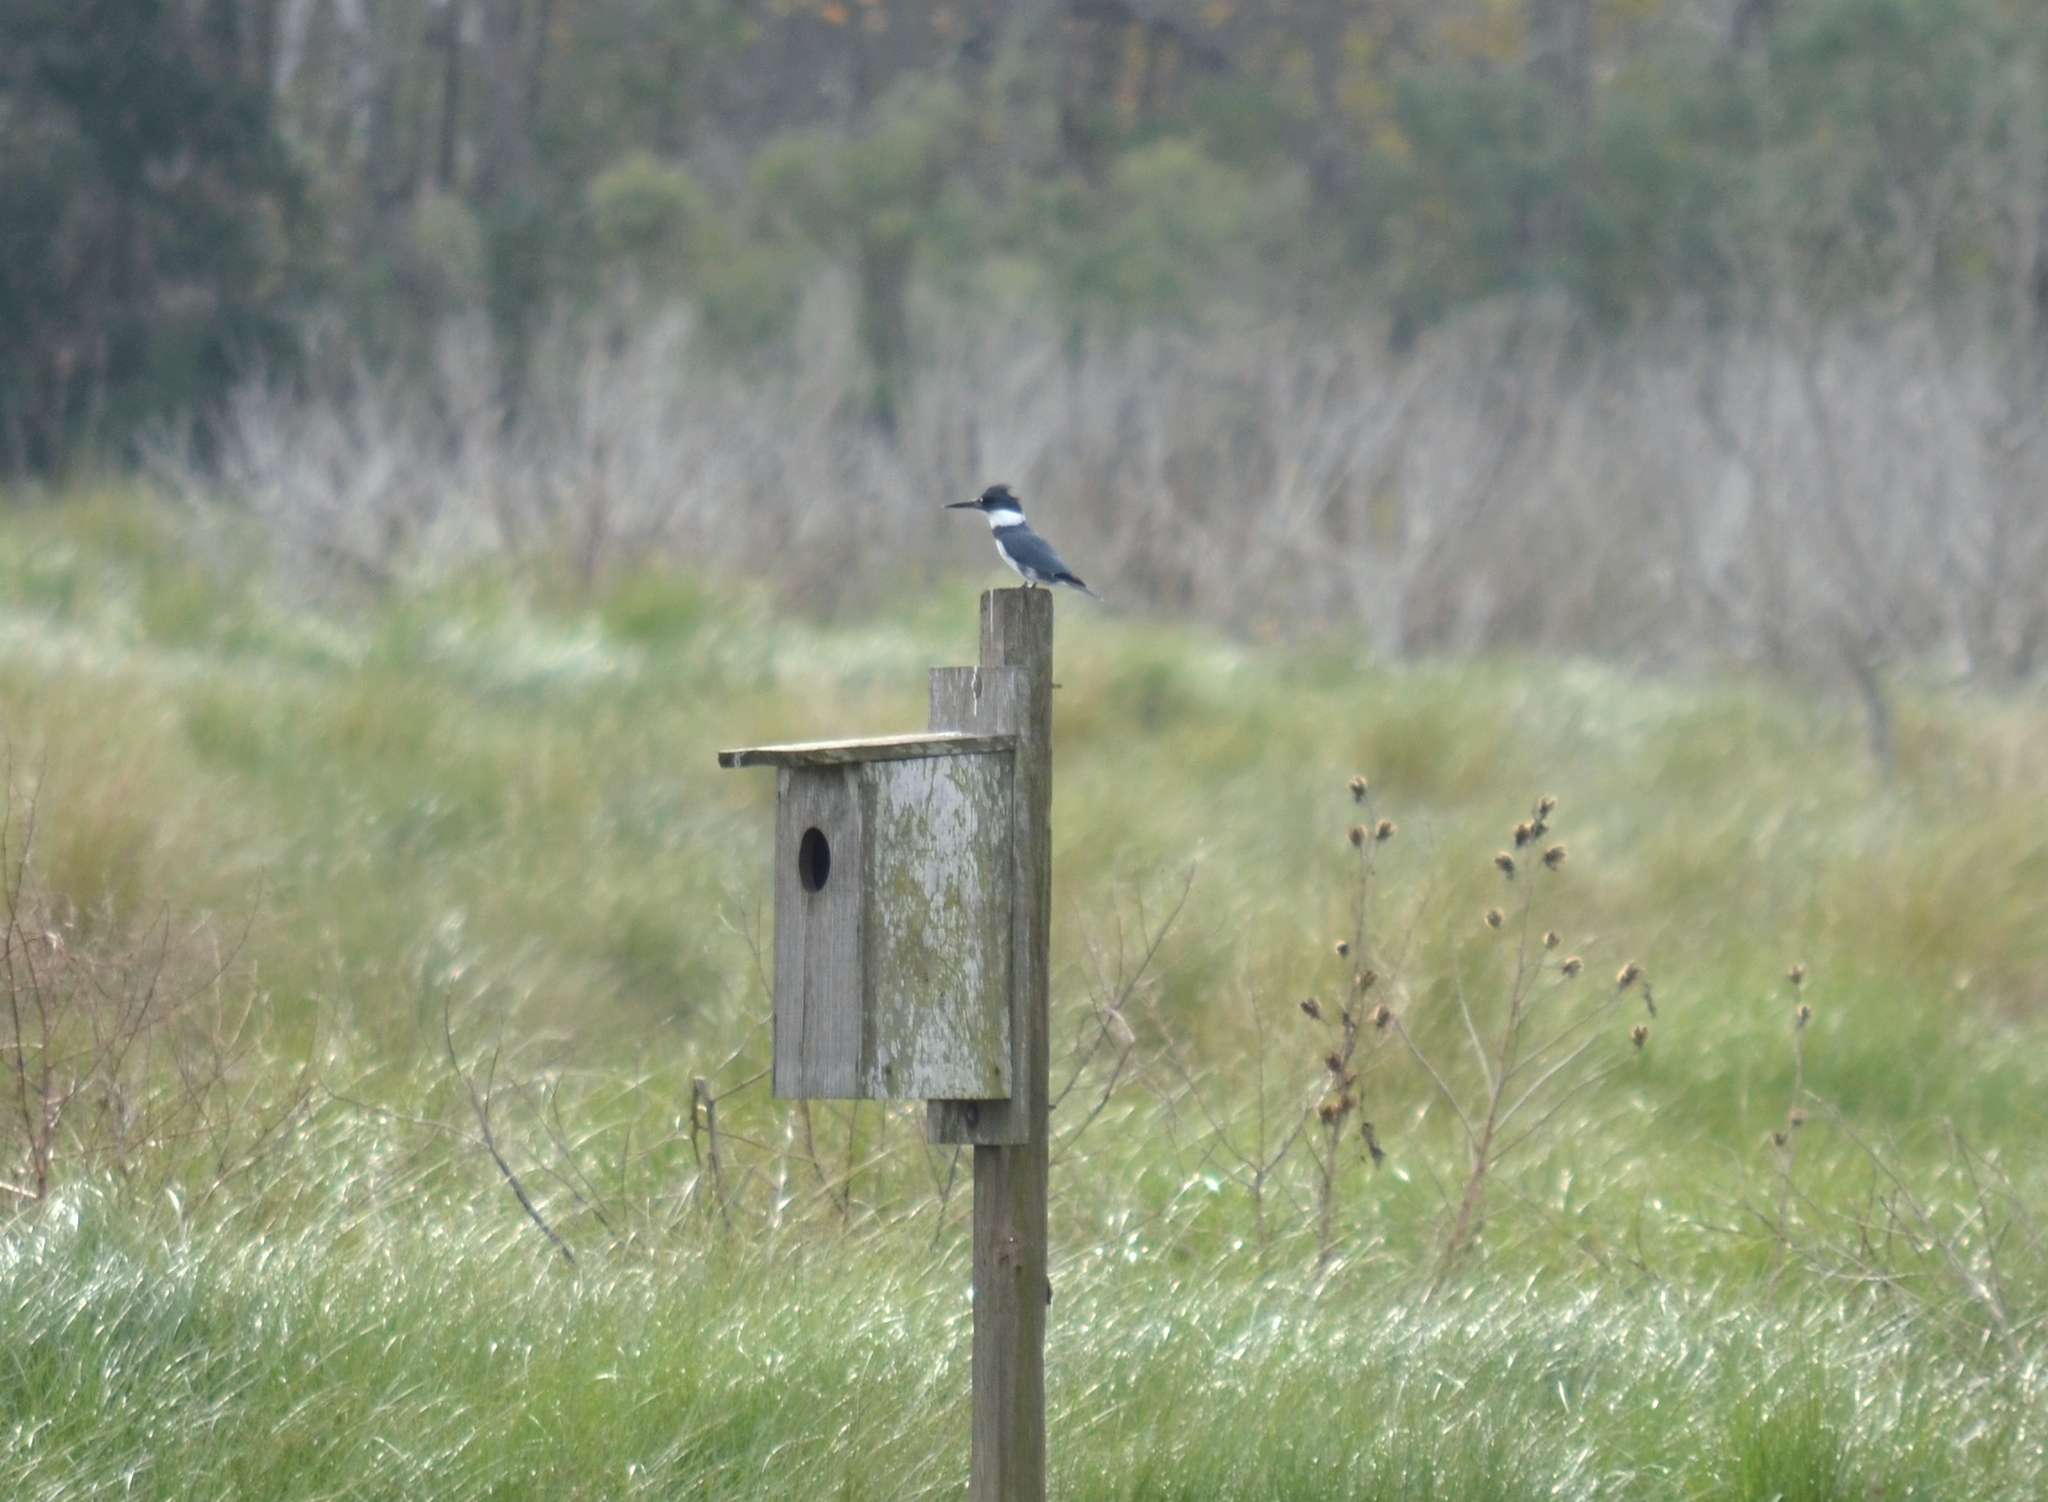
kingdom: Animalia
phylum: Chordata
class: Aves
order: Coraciiformes
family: Alcedinidae
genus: Megaceryle
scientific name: Megaceryle alcyon
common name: Belted kingfisher
